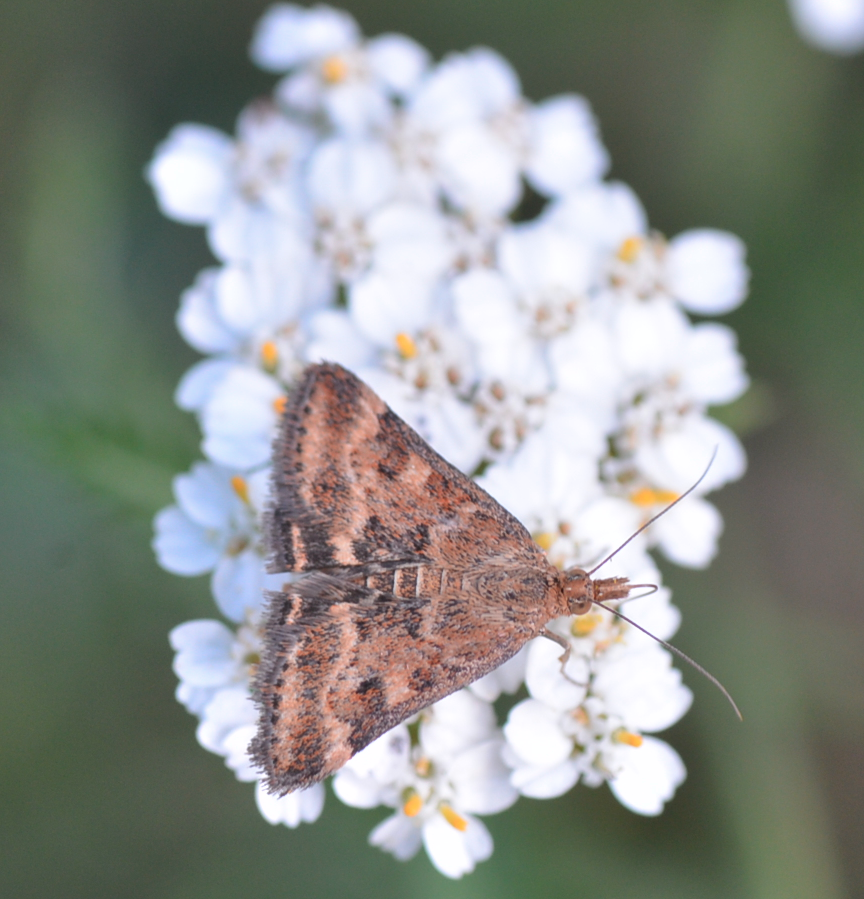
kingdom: Animalia
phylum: Arthropoda
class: Insecta
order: Lepidoptera
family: Crambidae
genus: Pyrausta
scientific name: Pyrausta despicata
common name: Straw-barred pearl
